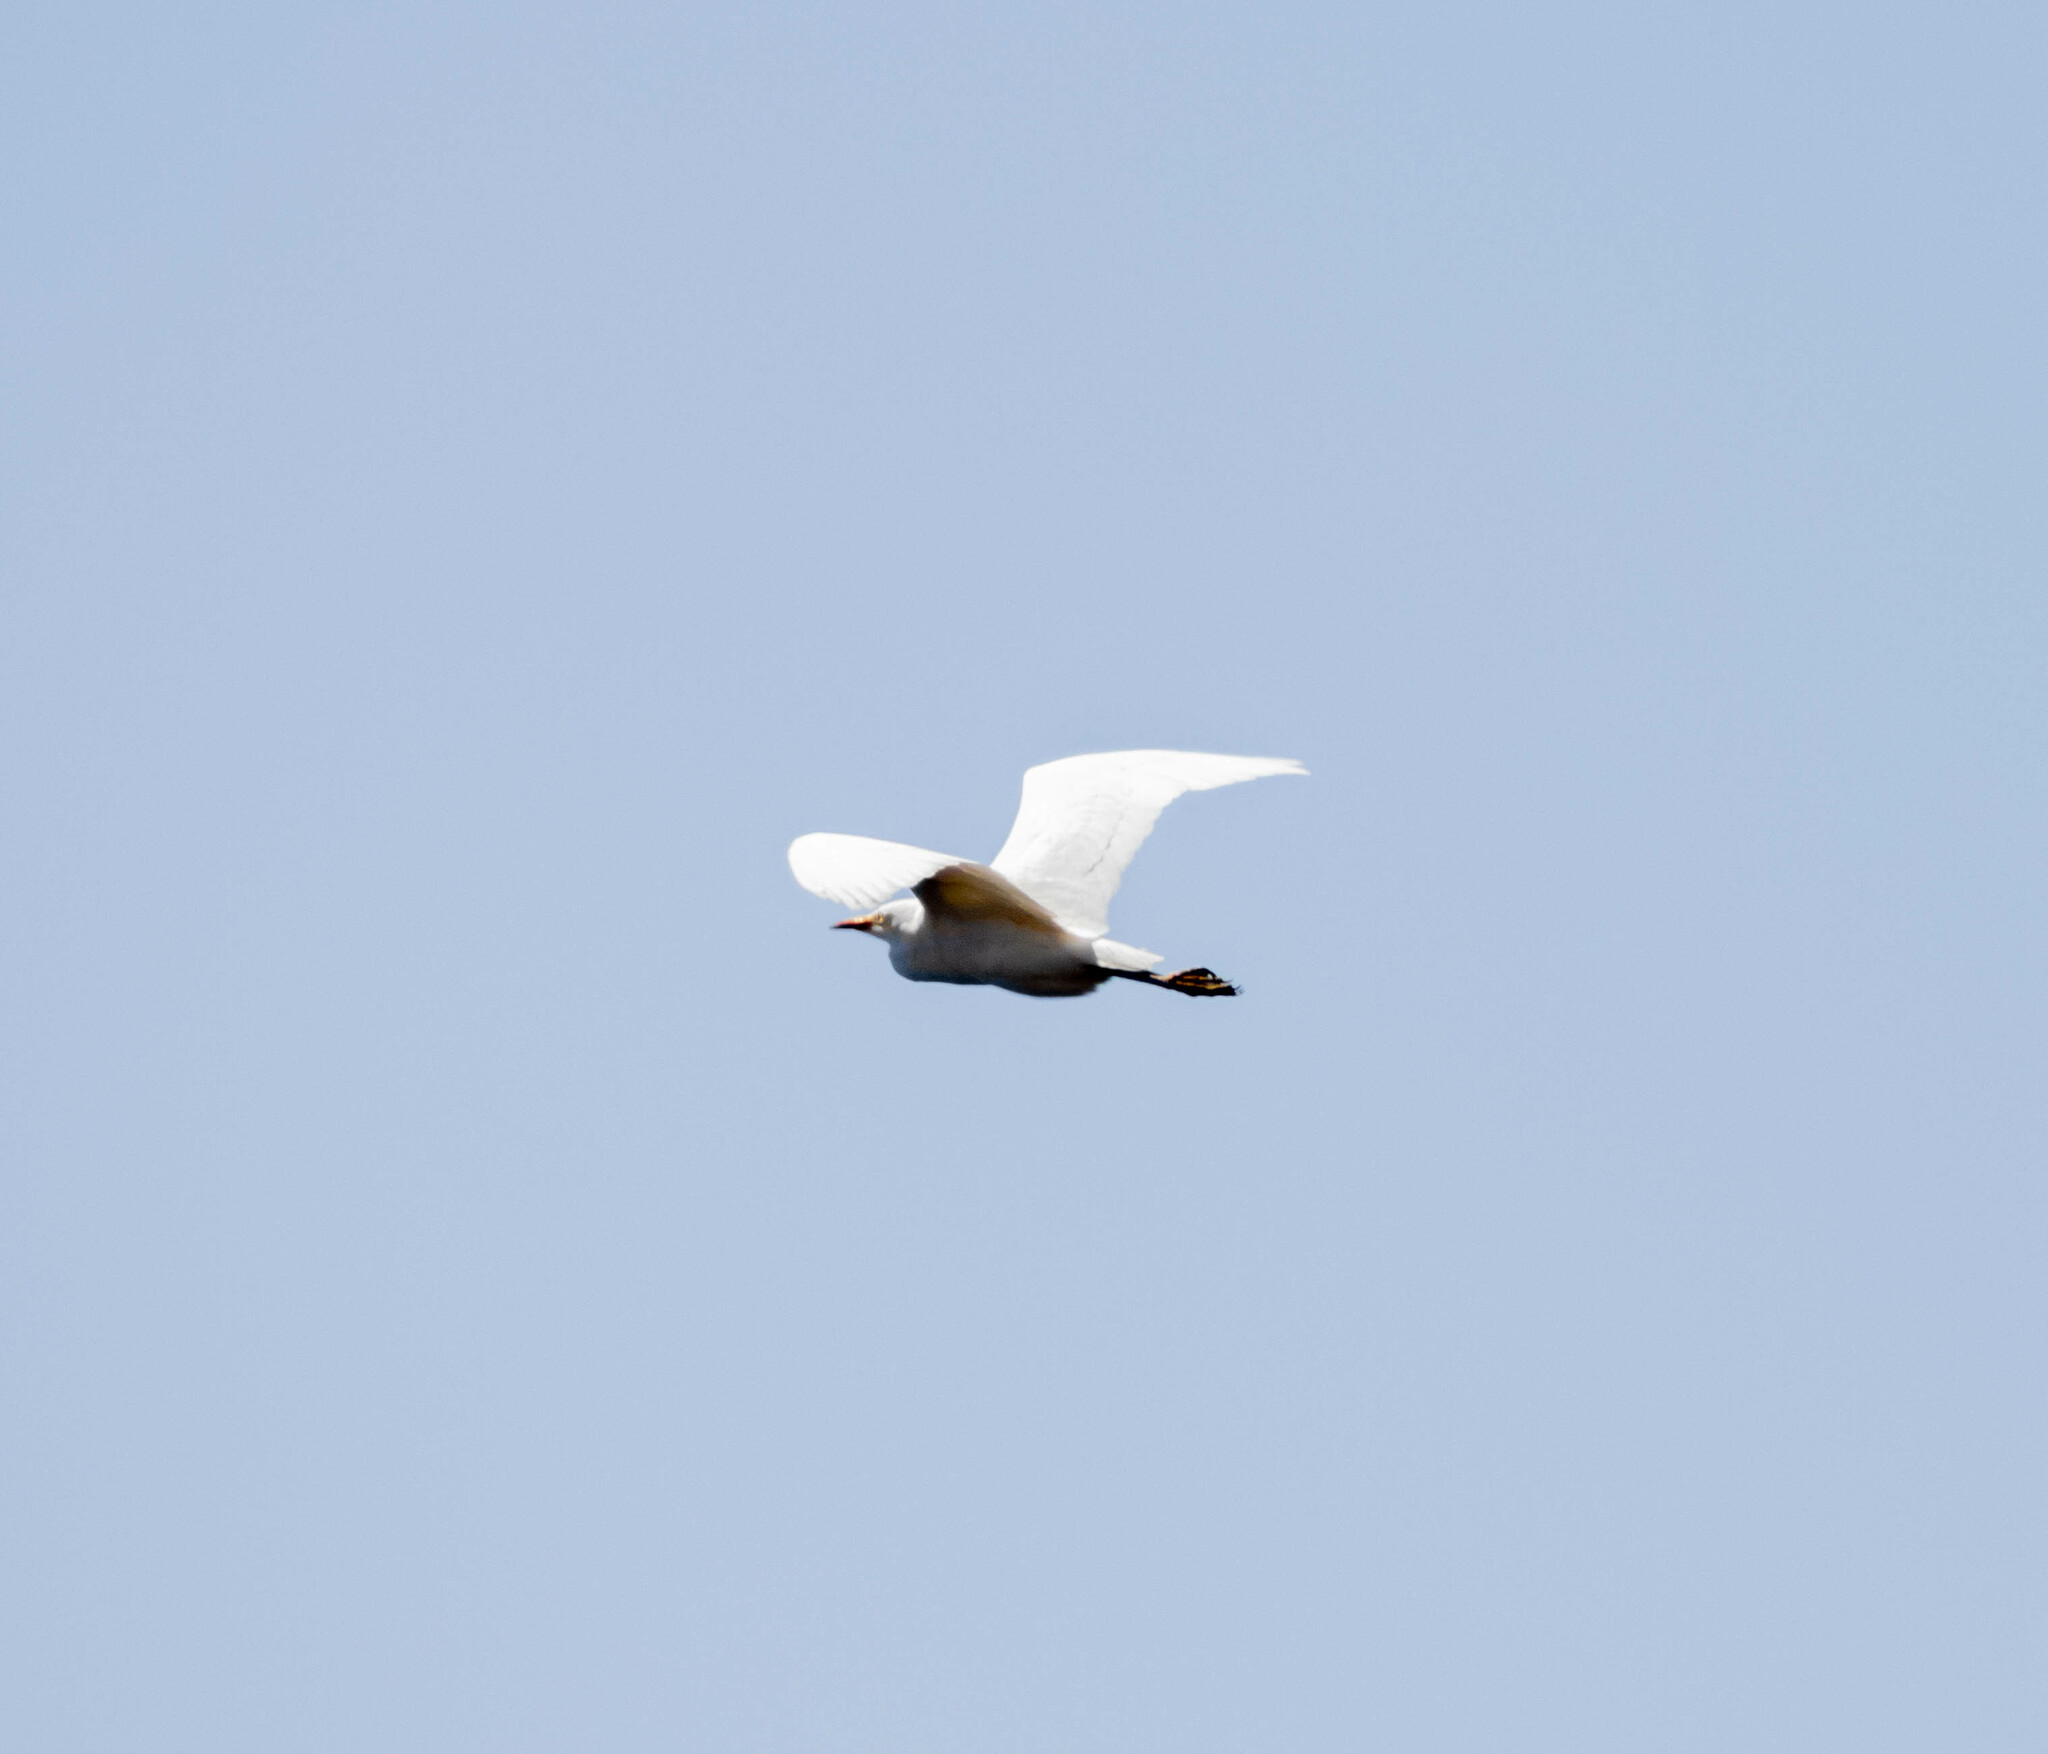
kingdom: Animalia
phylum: Chordata
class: Aves
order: Pelecaniformes
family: Ardeidae
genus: Bubulcus
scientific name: Bubulcus ibis
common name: Cattle egret
